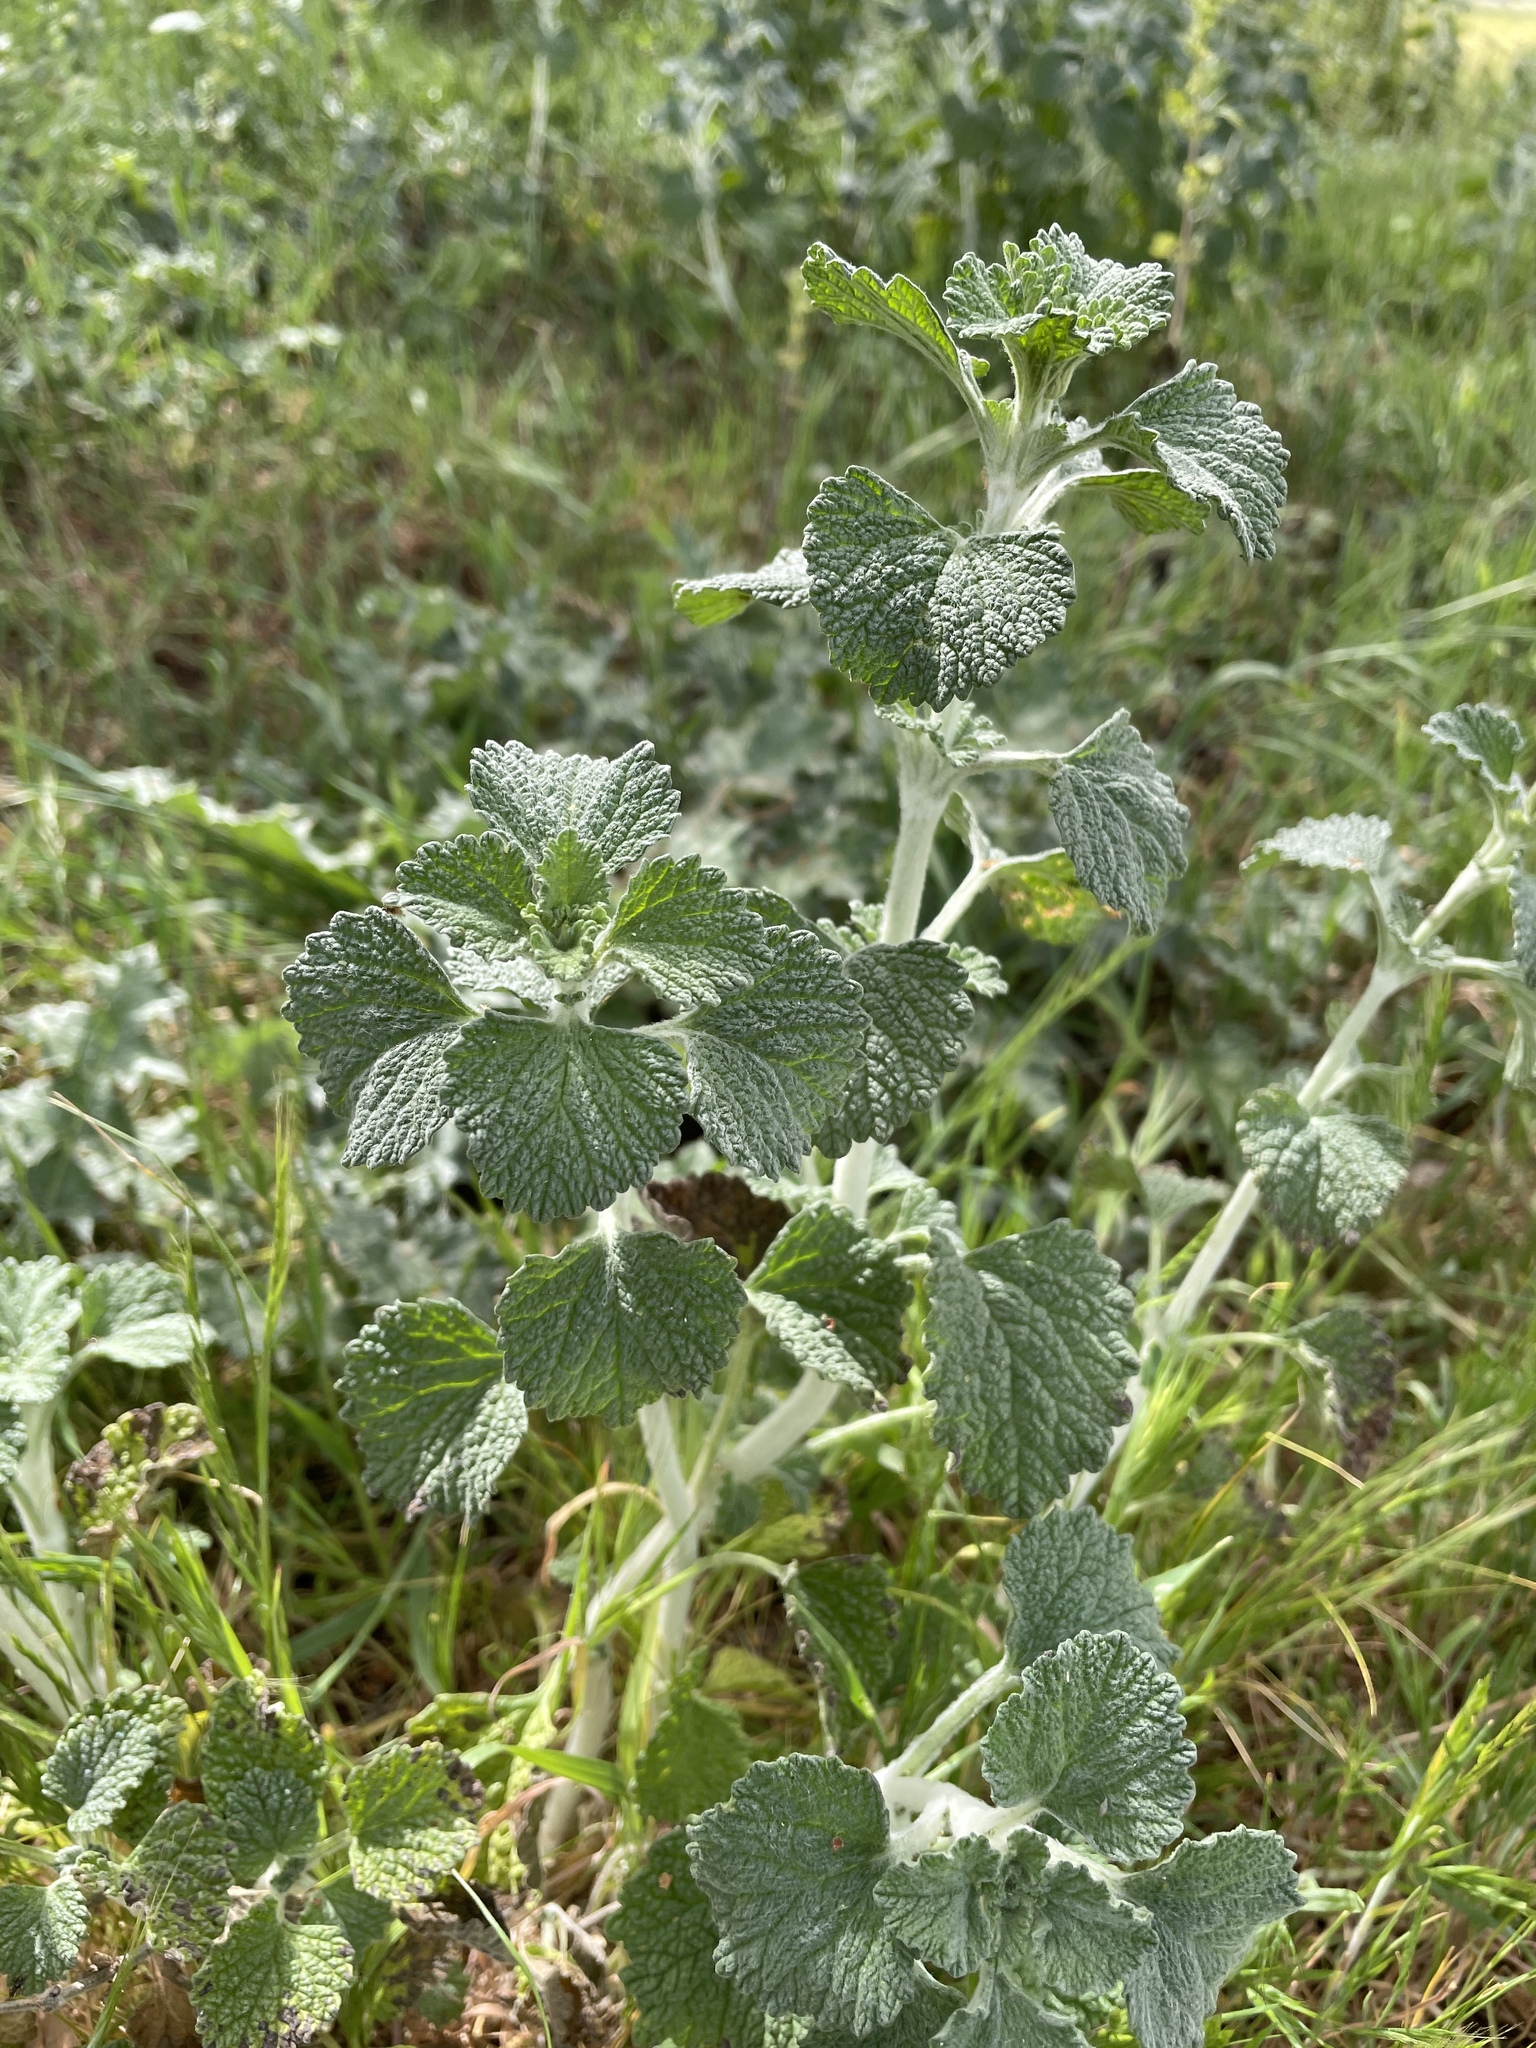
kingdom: Plantae
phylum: Tracheophyta
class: Magnoliopsida
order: Lamiales
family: Lamiaceae
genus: Marrubium
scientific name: Marrubium vulgare
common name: Horehound
